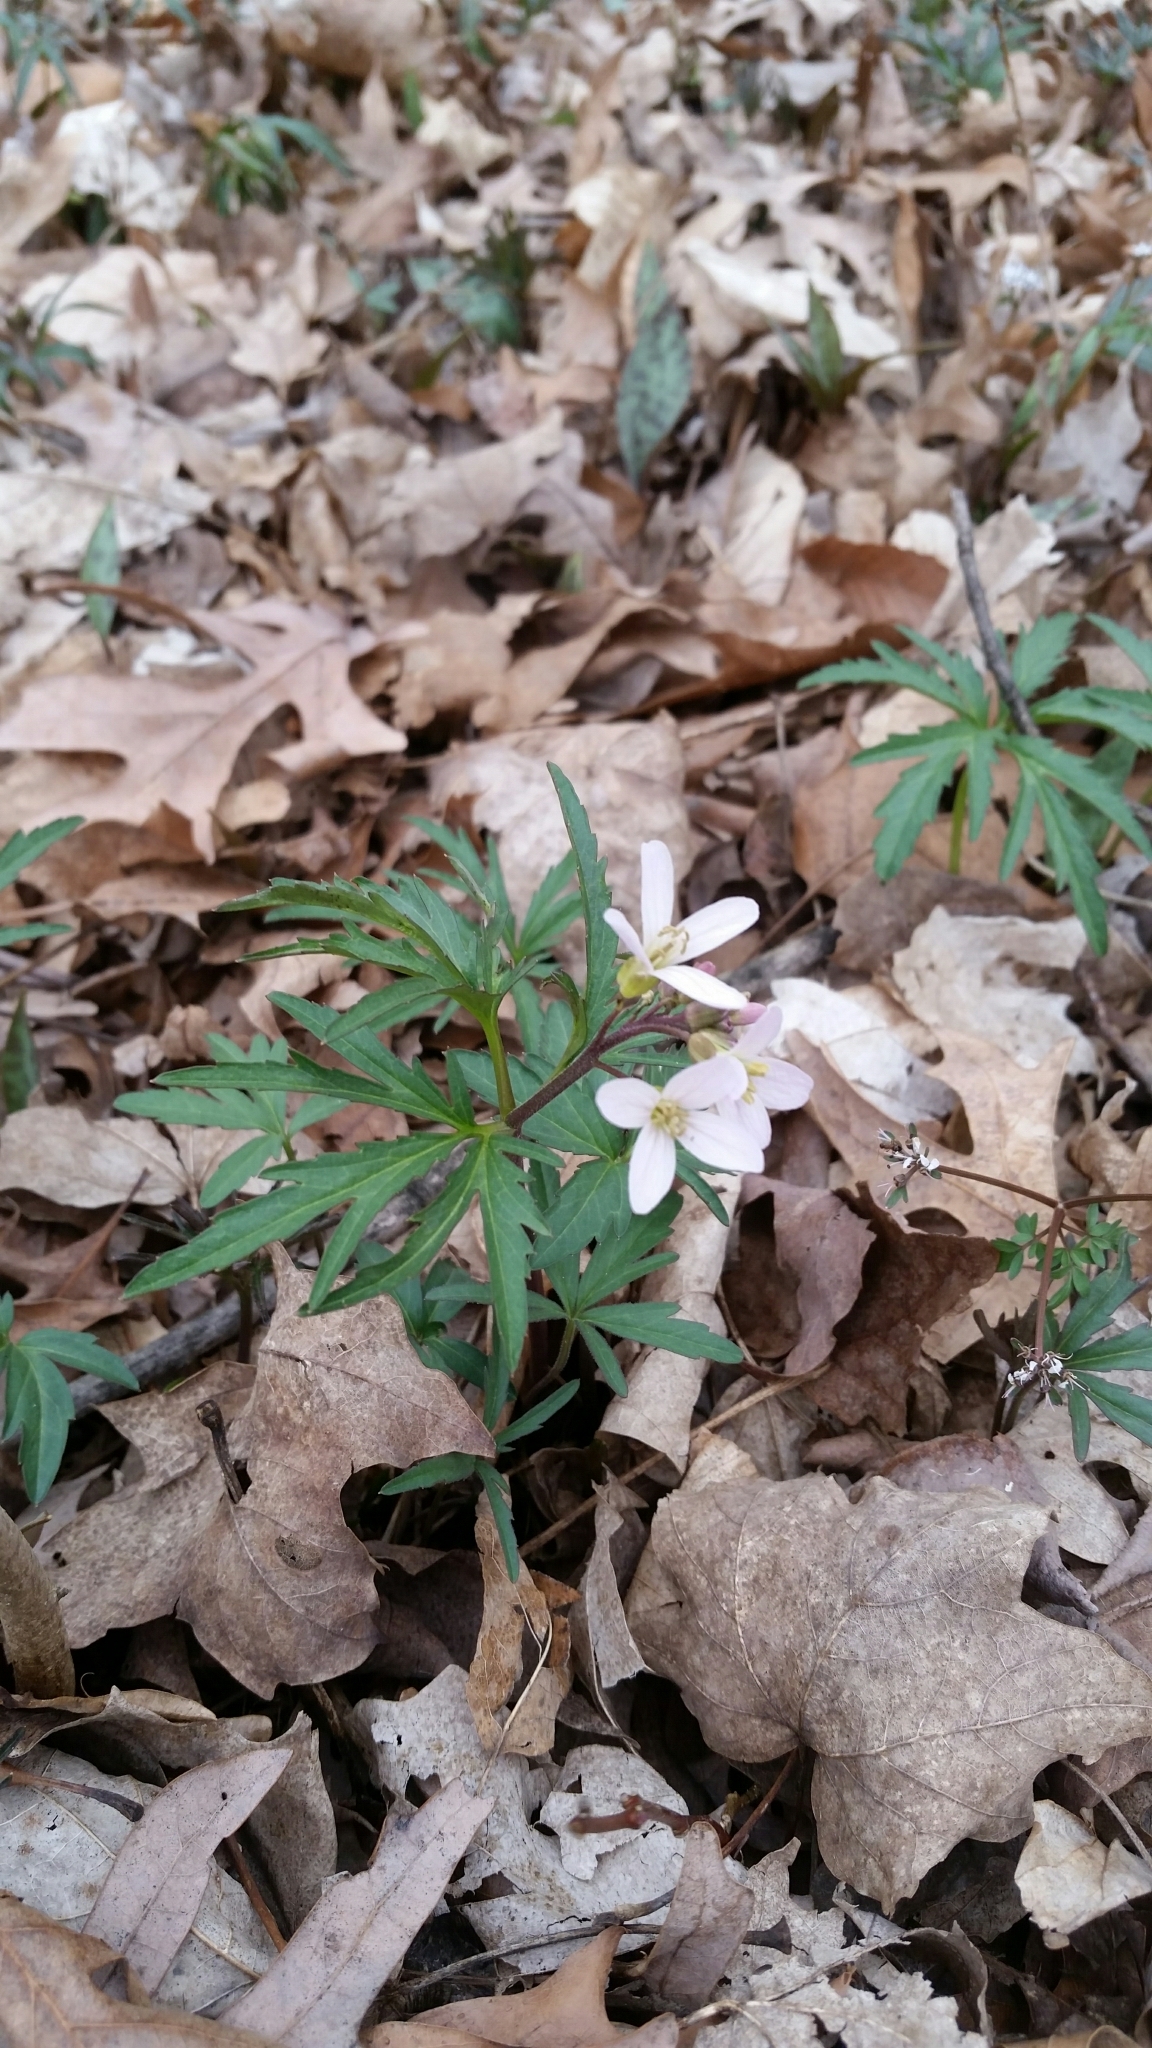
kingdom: Plantae
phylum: Tracheophyta
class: Magnoliopsida
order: Brassicales
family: Brassicaceae
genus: Cardamine
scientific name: Cardamine concatenata
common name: Cut-leaf toothcup
